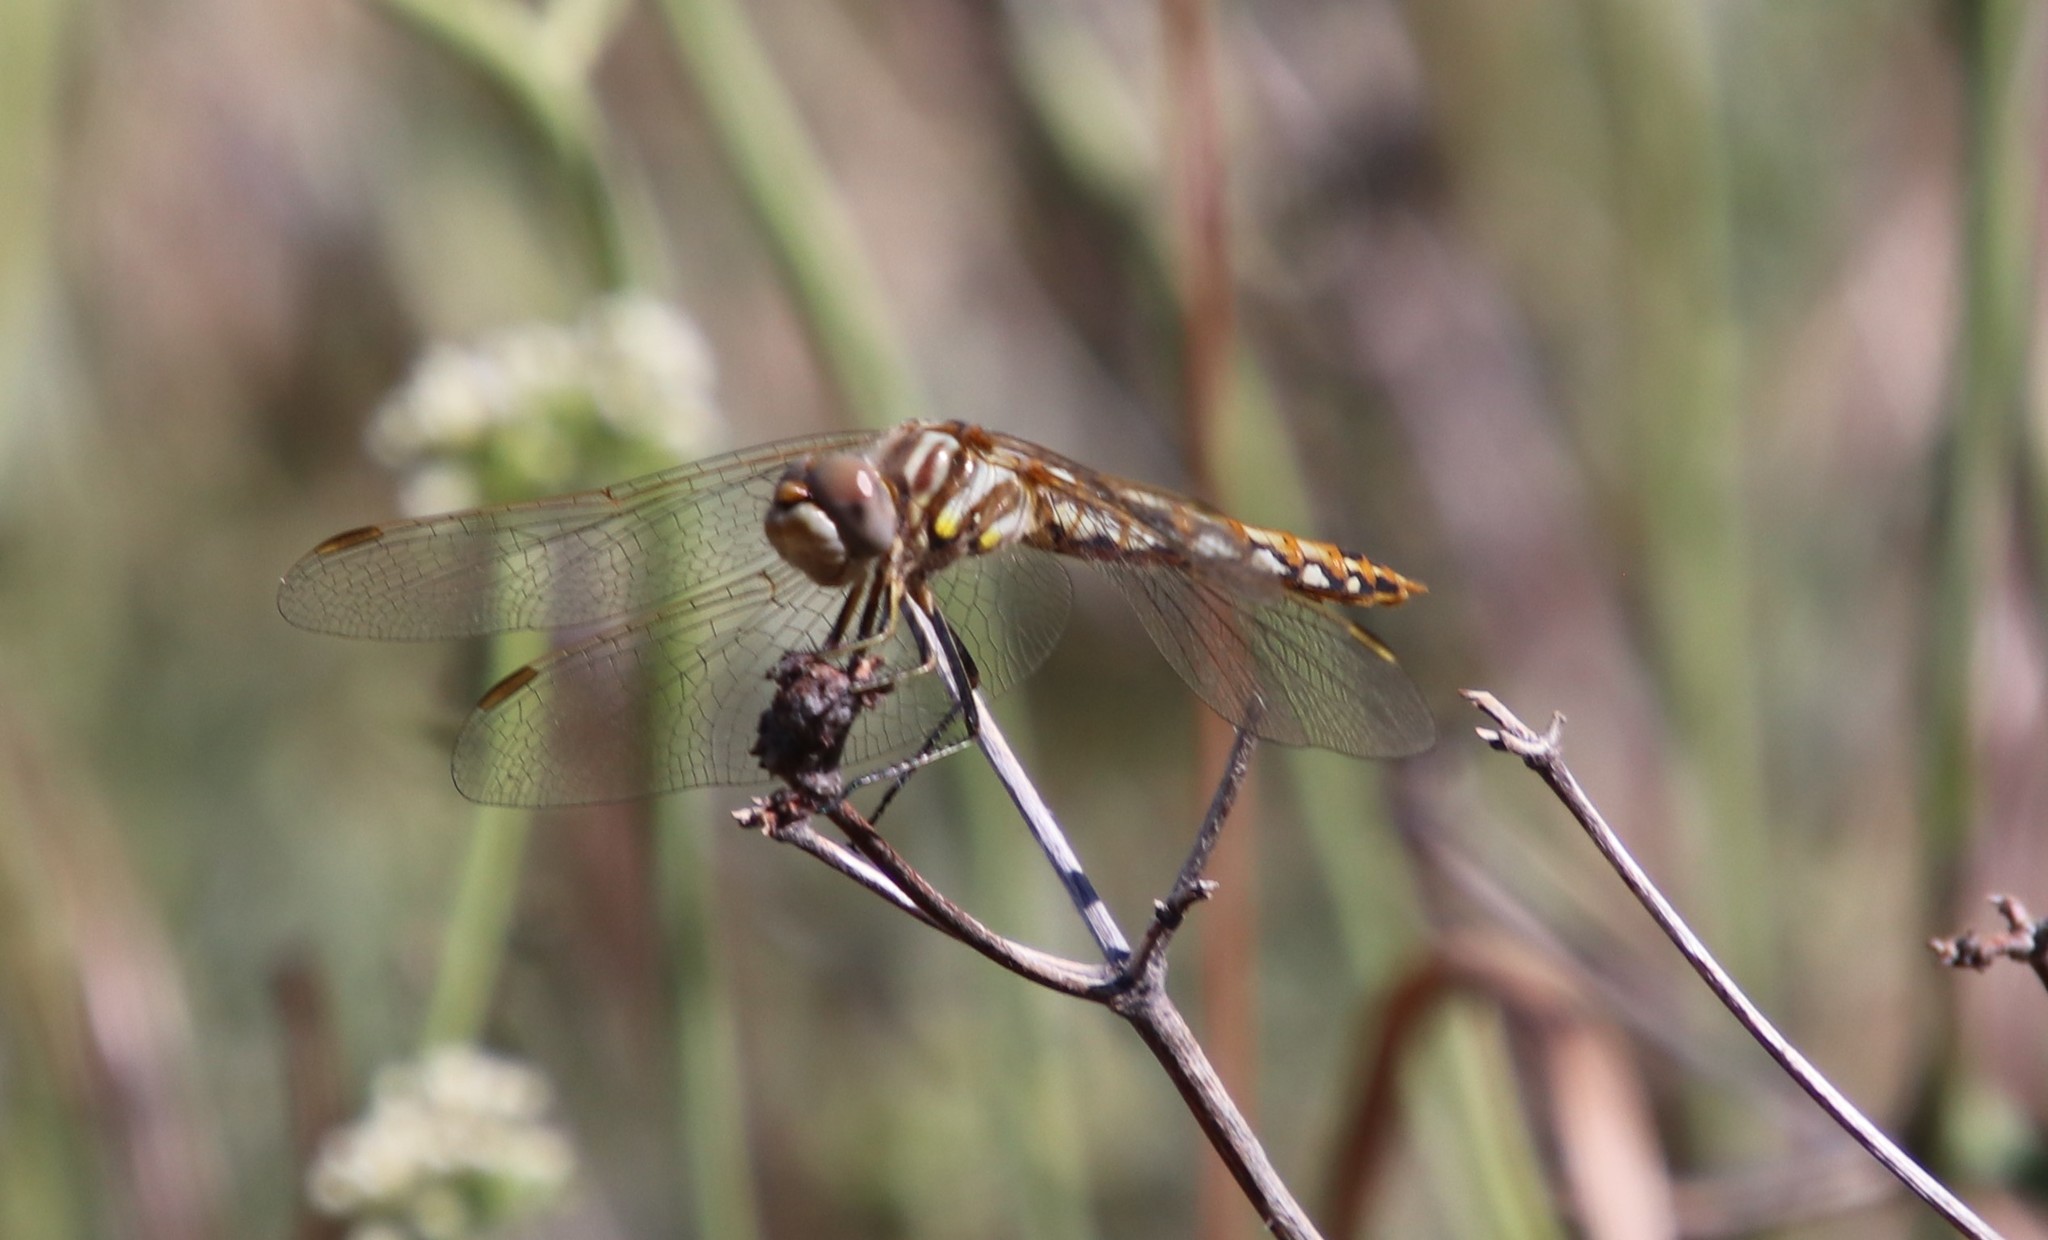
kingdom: Animalia
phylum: Arthropoda
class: Insecta
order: Odonata
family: Libellulidae
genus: Sympetrum
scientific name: Sympetrum corruptum
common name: Variegated meadowhawk
